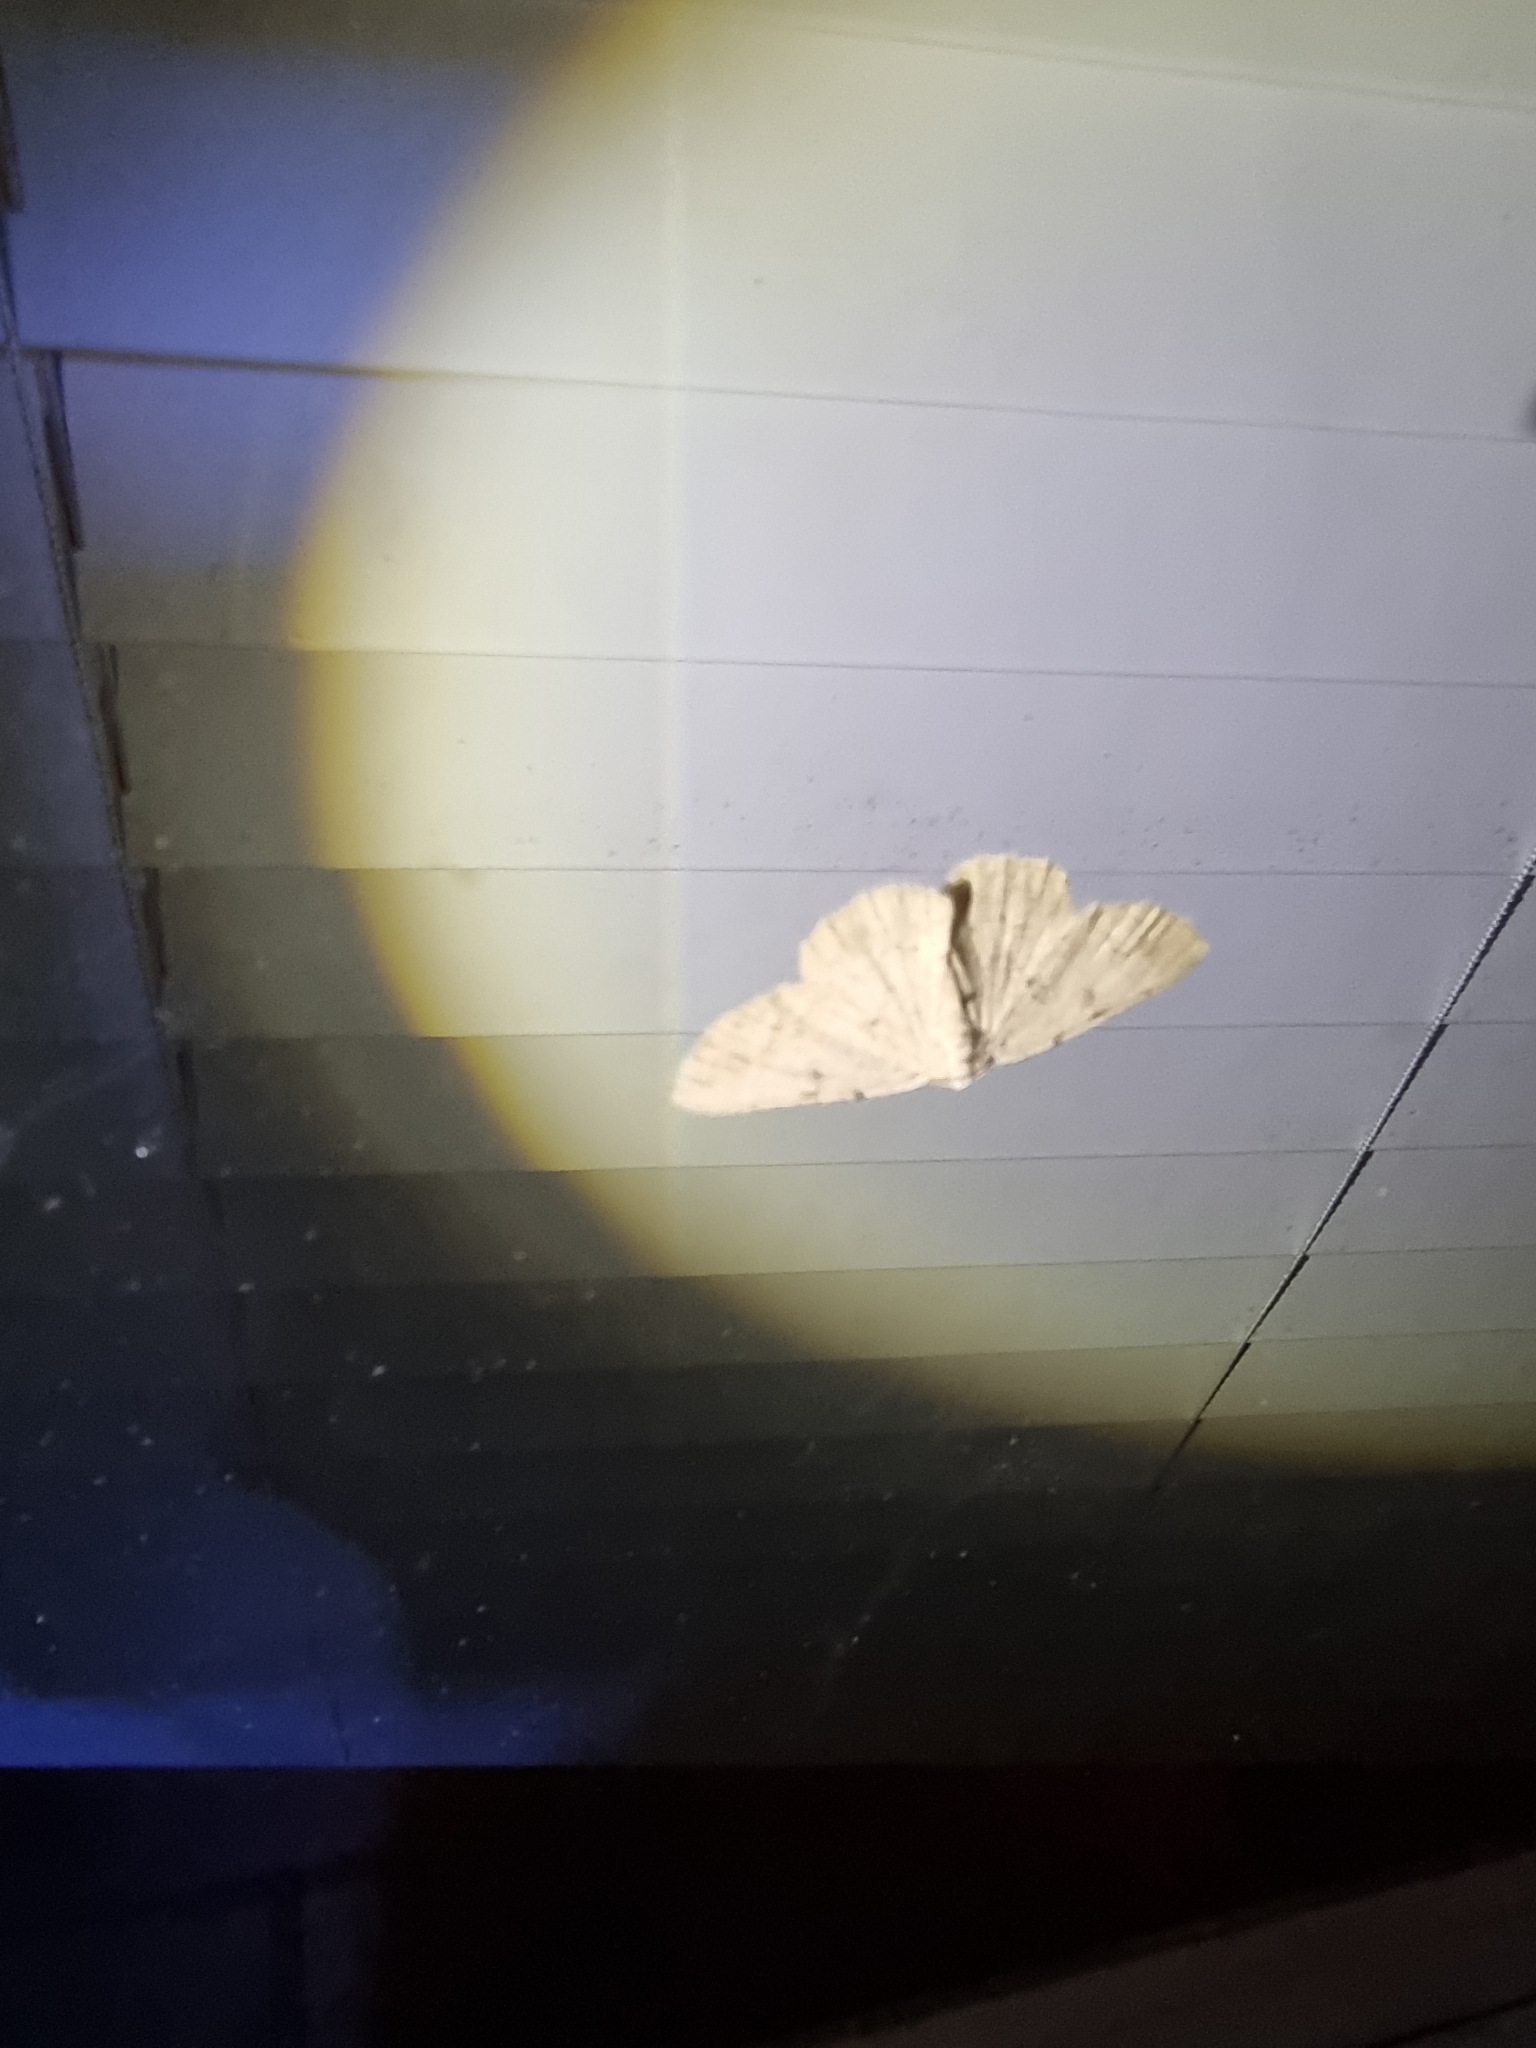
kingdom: Animalia
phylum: Arthropoda
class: Insecta
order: Lepidoptera
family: Geometridae
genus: Aeolochroma
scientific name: Aeolochroma quadrilinea
